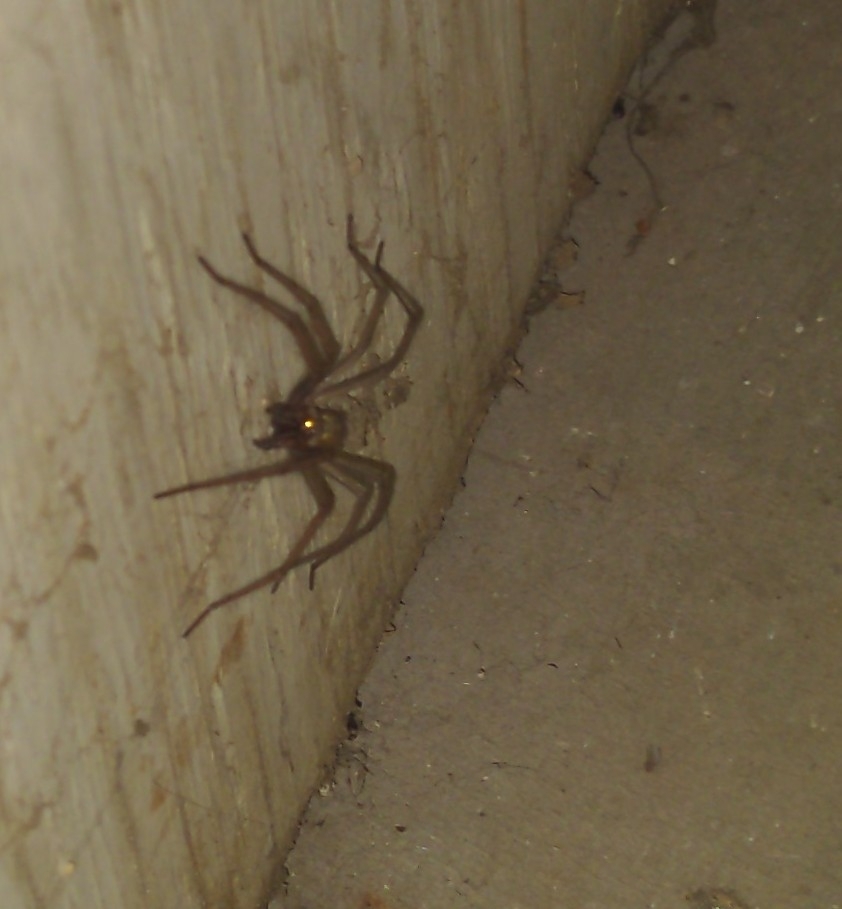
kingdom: Animalia
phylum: Arthropoda
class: Arachnida
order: Araneae
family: Agelenidae
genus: Eratigena
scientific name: Eratigena duellica
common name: Giant house spider
